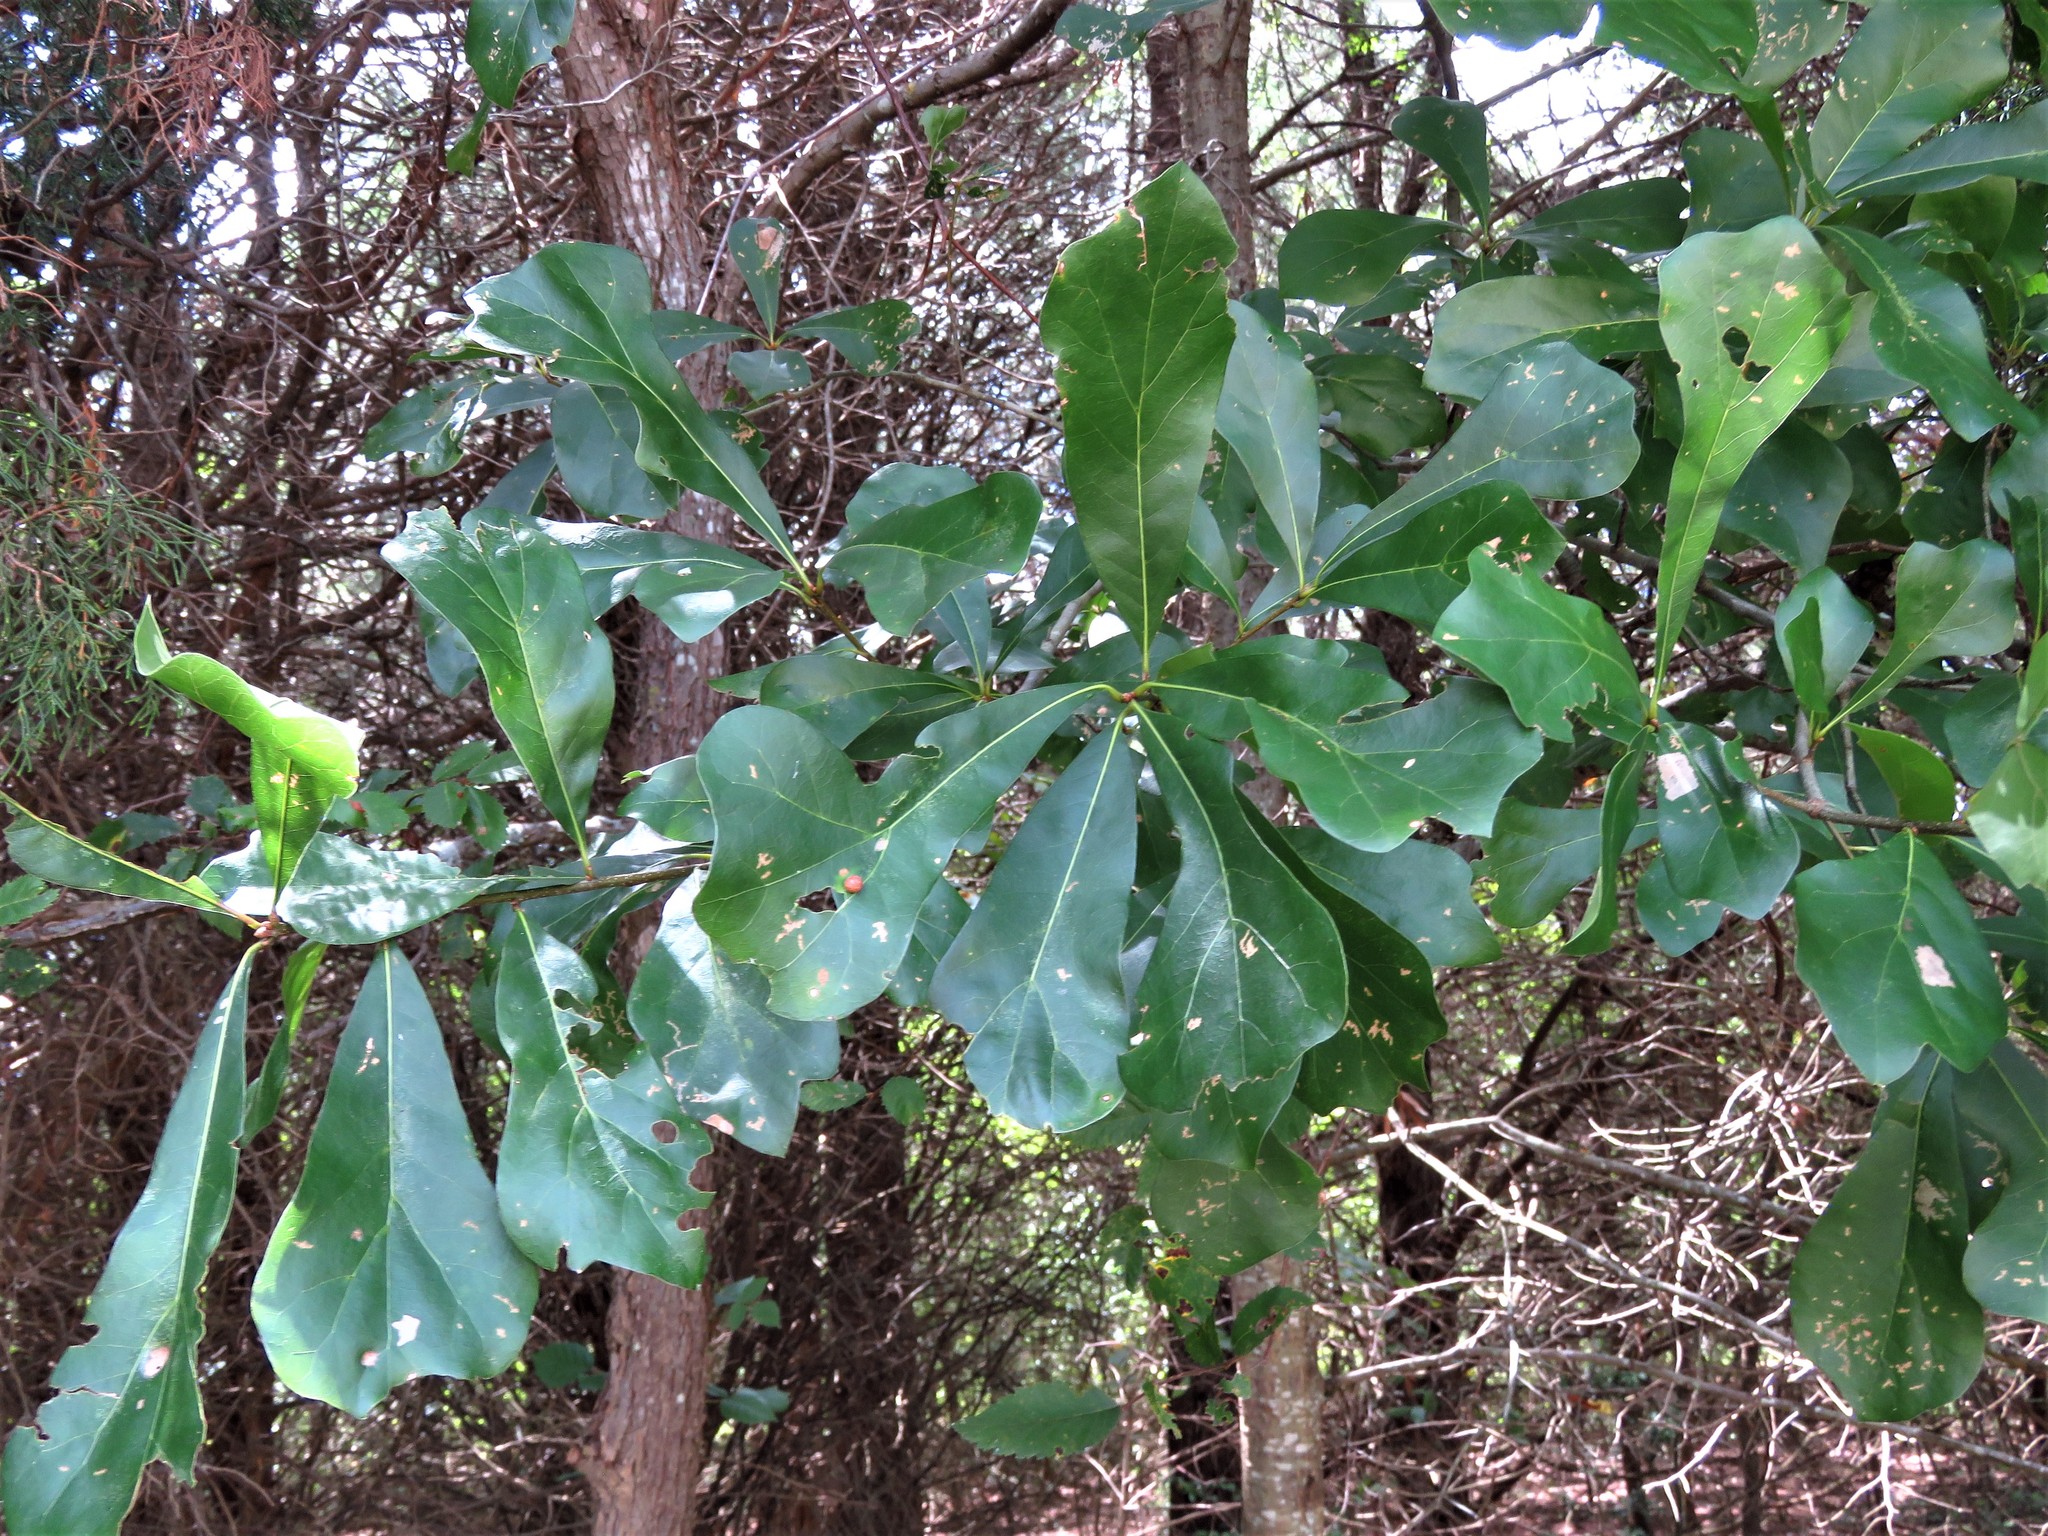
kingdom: Plantae
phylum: Tracheophyta
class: Magnoliopsida
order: Fagales
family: Fagaceae
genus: Quercus
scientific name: Quercus nigra
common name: Water oak
